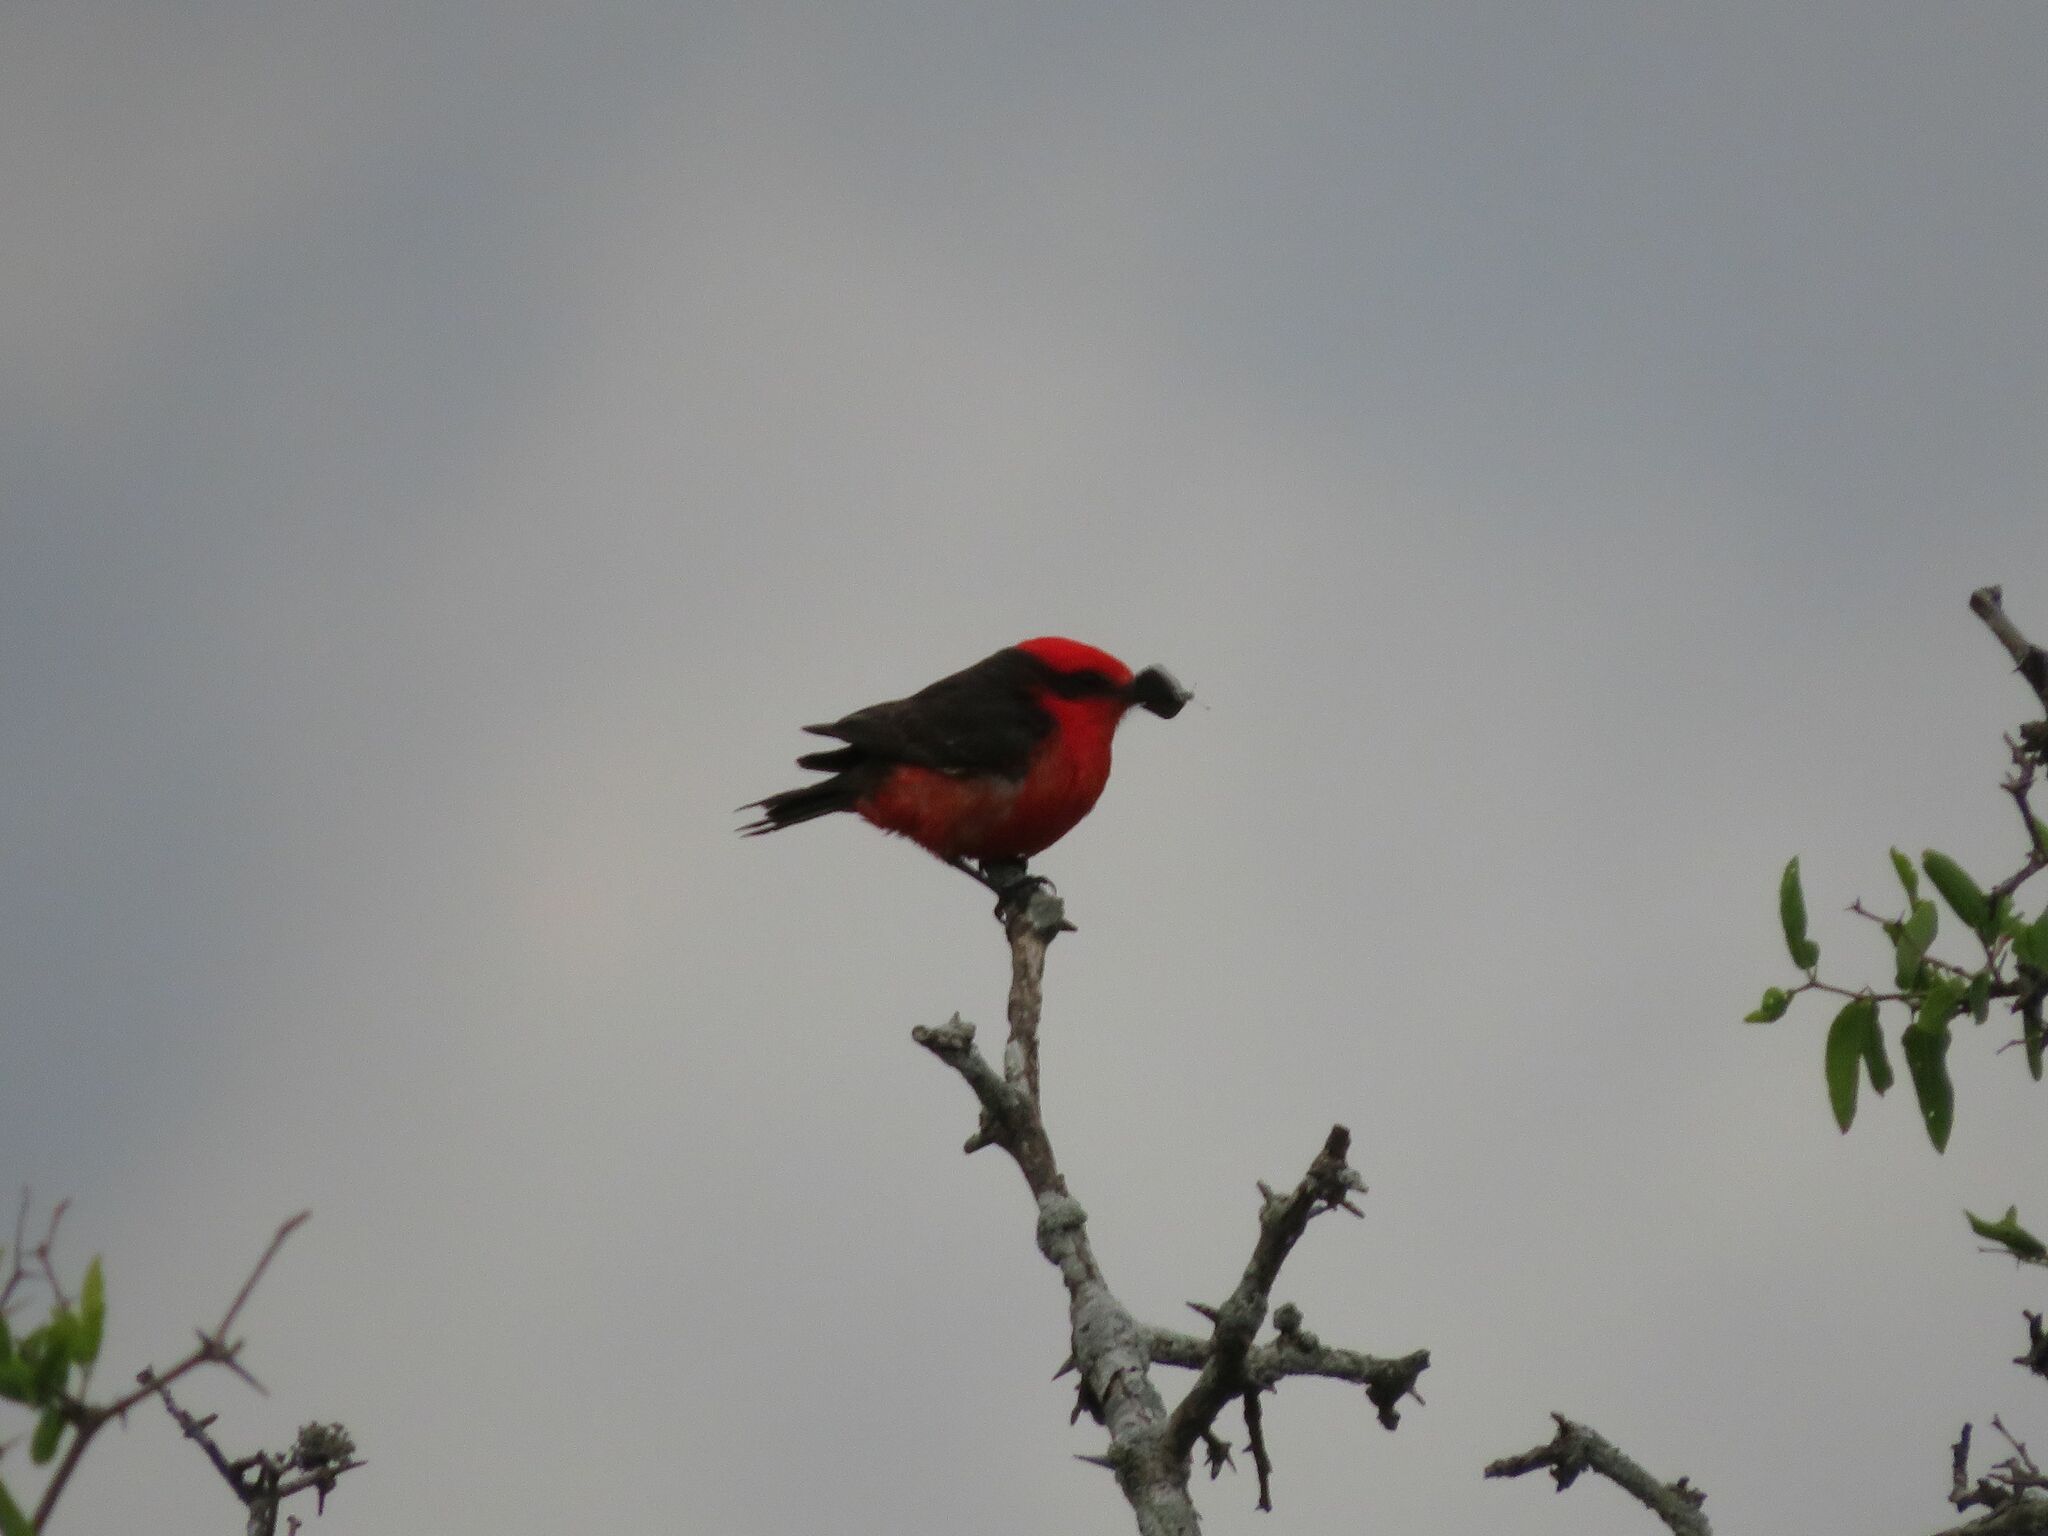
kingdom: Animalia
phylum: Chordata
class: Aves
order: Passeriformes
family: Tyrannidae
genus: Pyrocephalus
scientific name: Pyrocephalus rubinus
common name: Vermilion flycatcher
